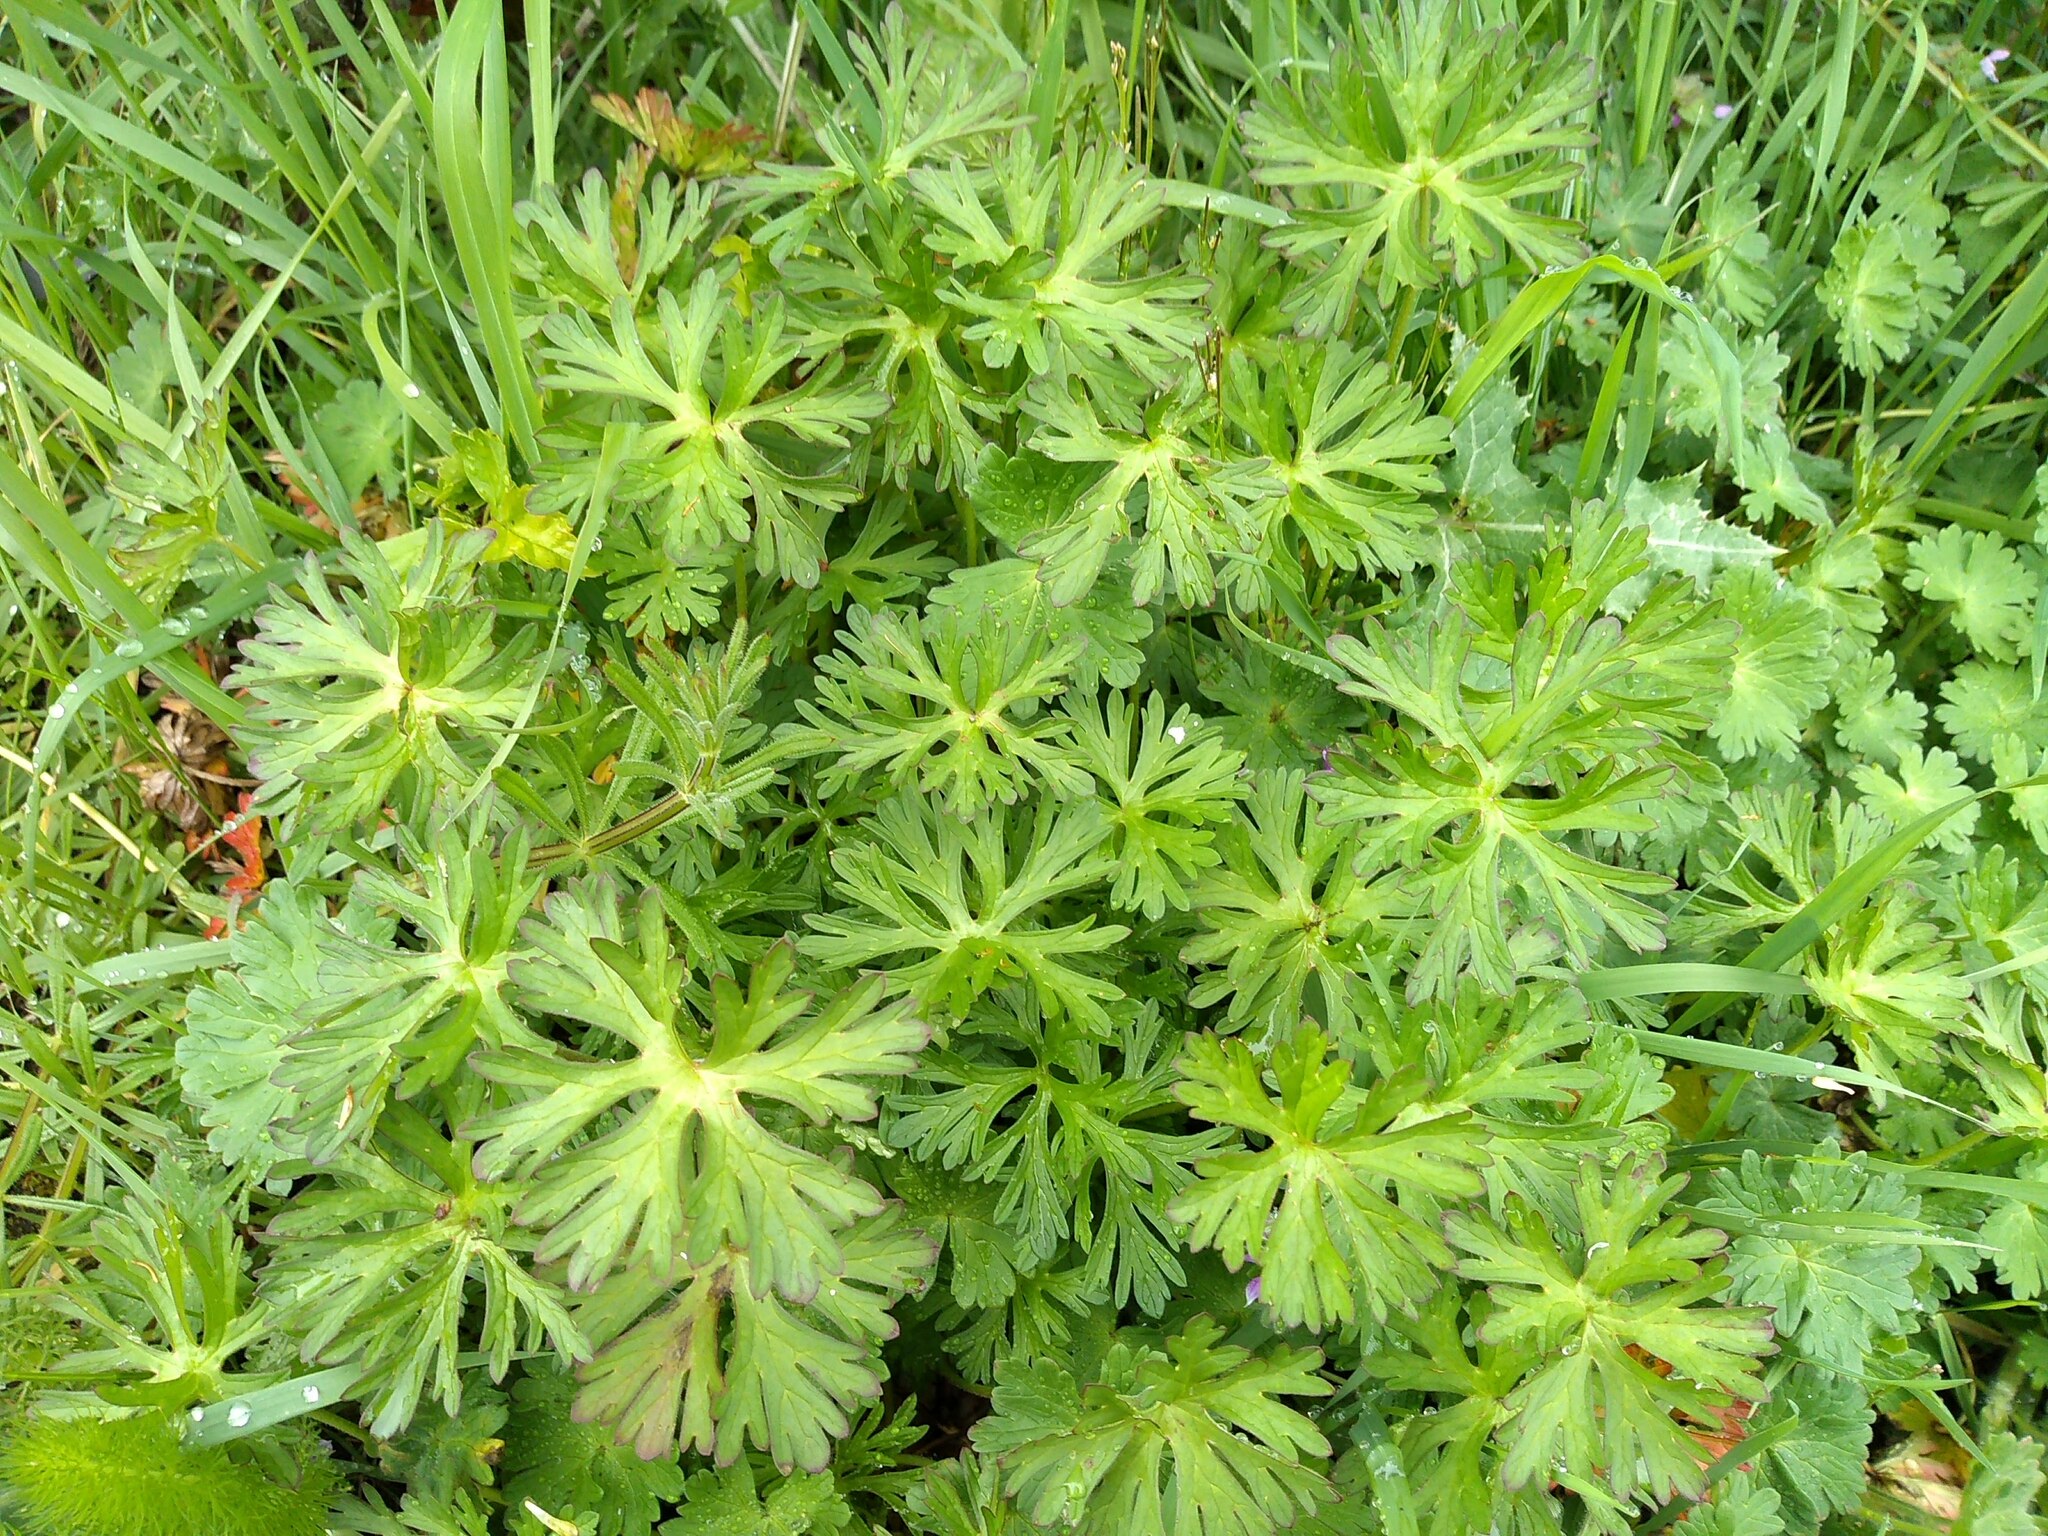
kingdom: Plantae
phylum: Tracheophyta
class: Magnoliopsida
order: Geraniales
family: Geraniaceae
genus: Geranium
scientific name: Geranium dissectum
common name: Cut-leaved crane's-bill
